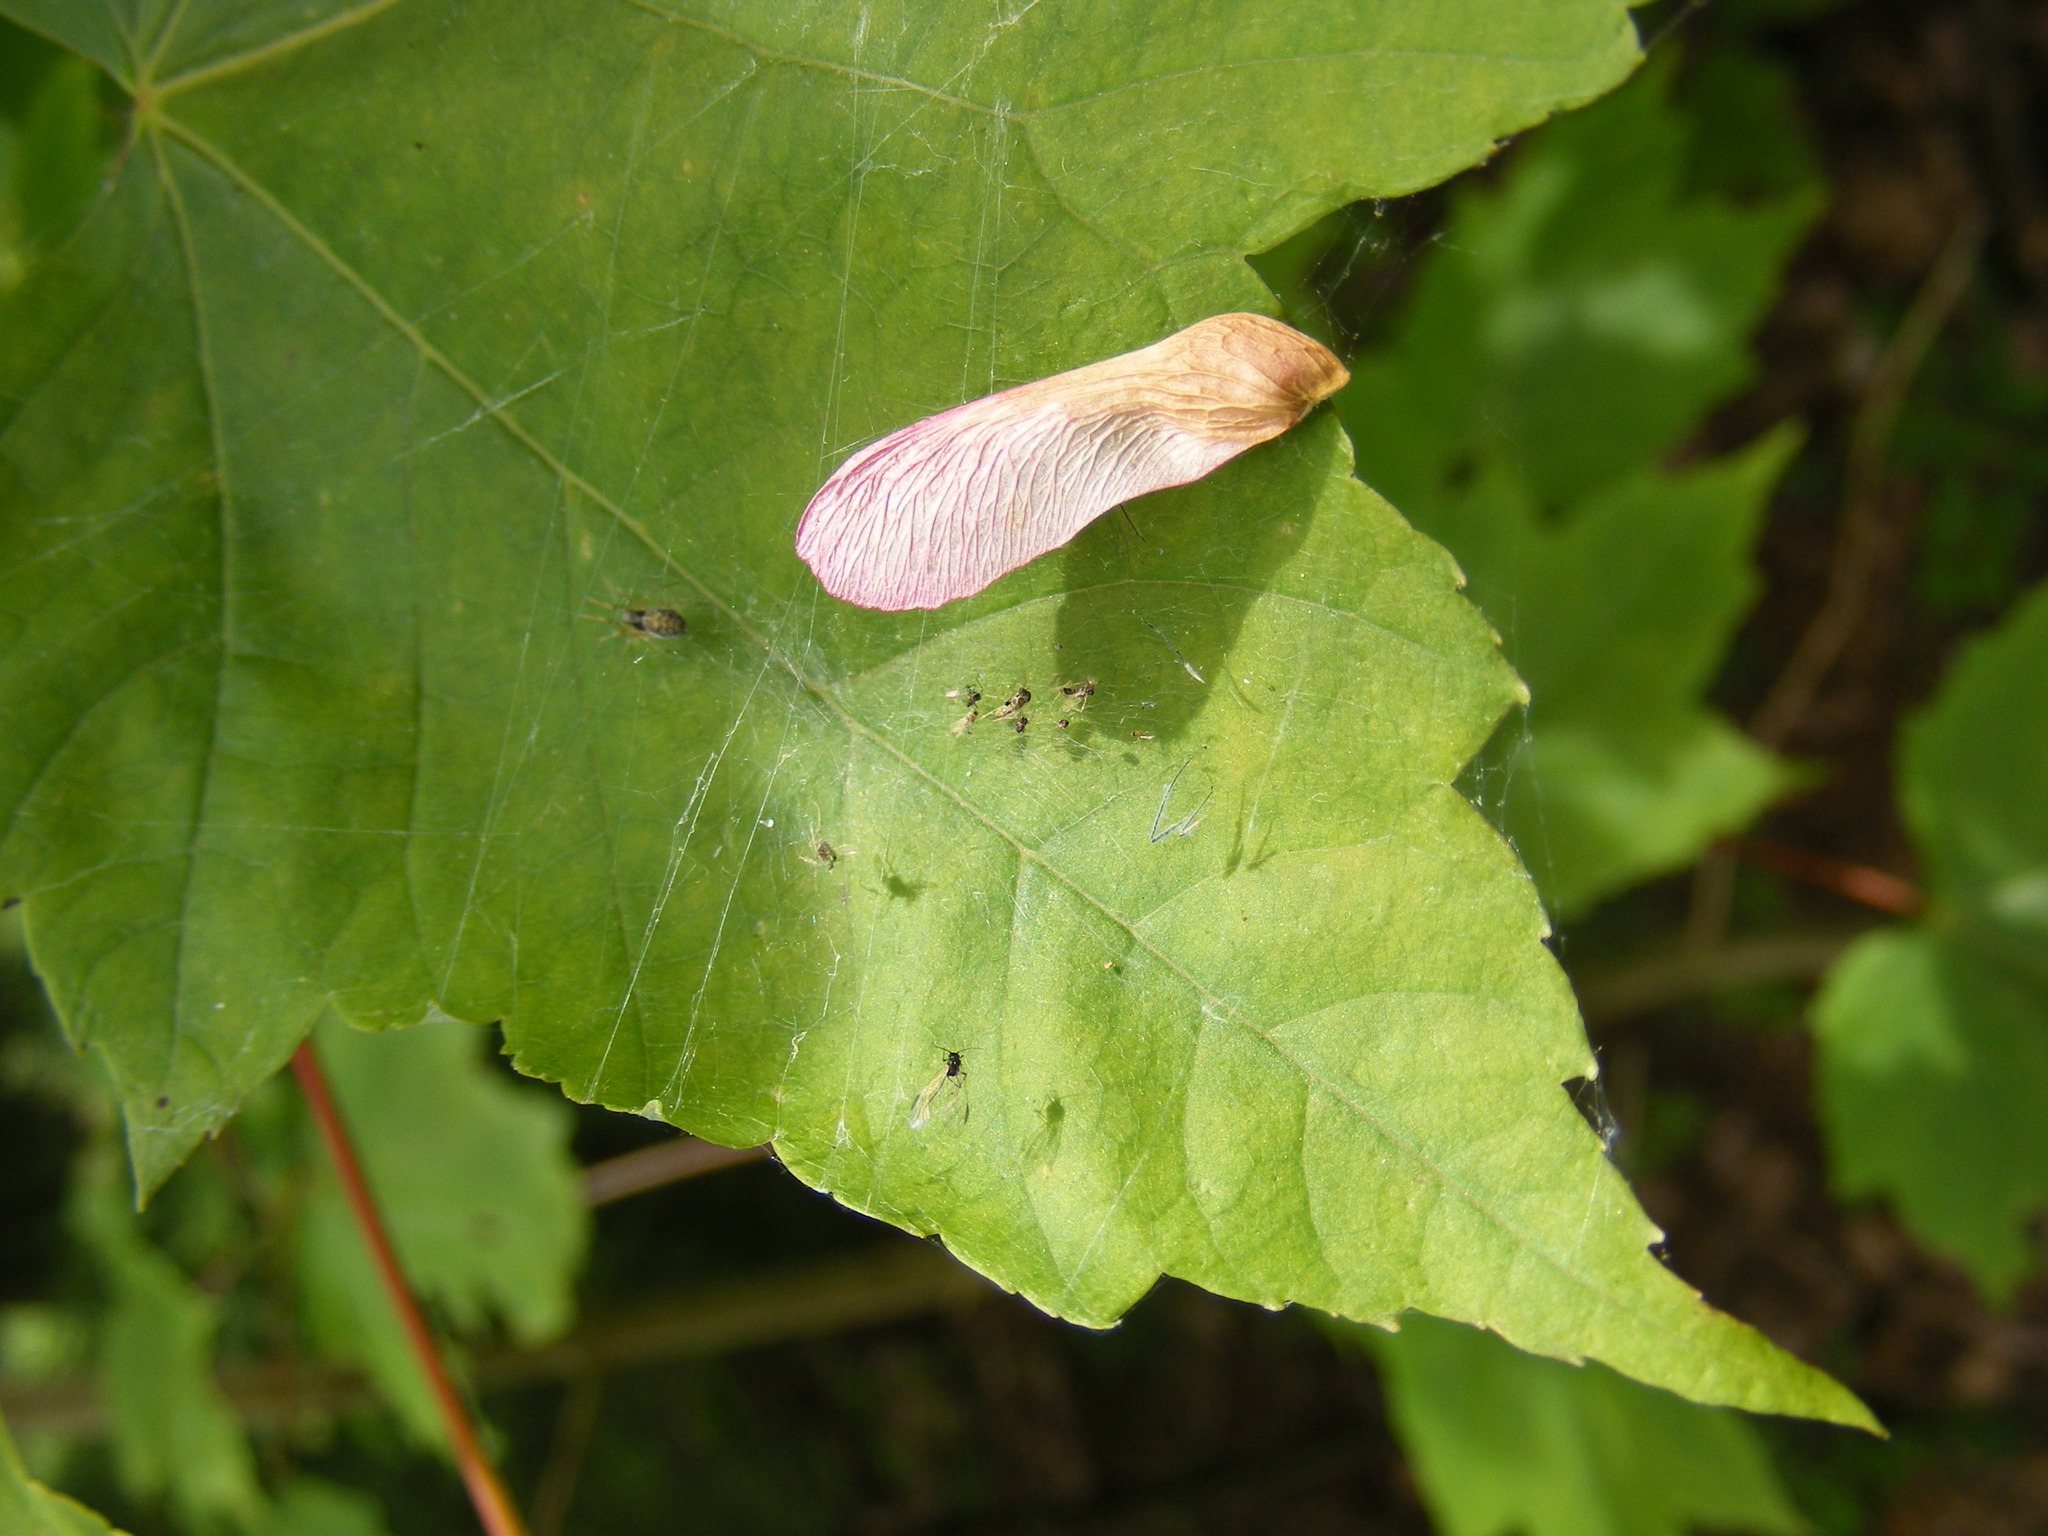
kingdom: Plantae
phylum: Tracheophyta
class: Magnoliopsida
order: Sapindales
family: Sapindaceae
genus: Acer
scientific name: Acer rubrum
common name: Red maple
